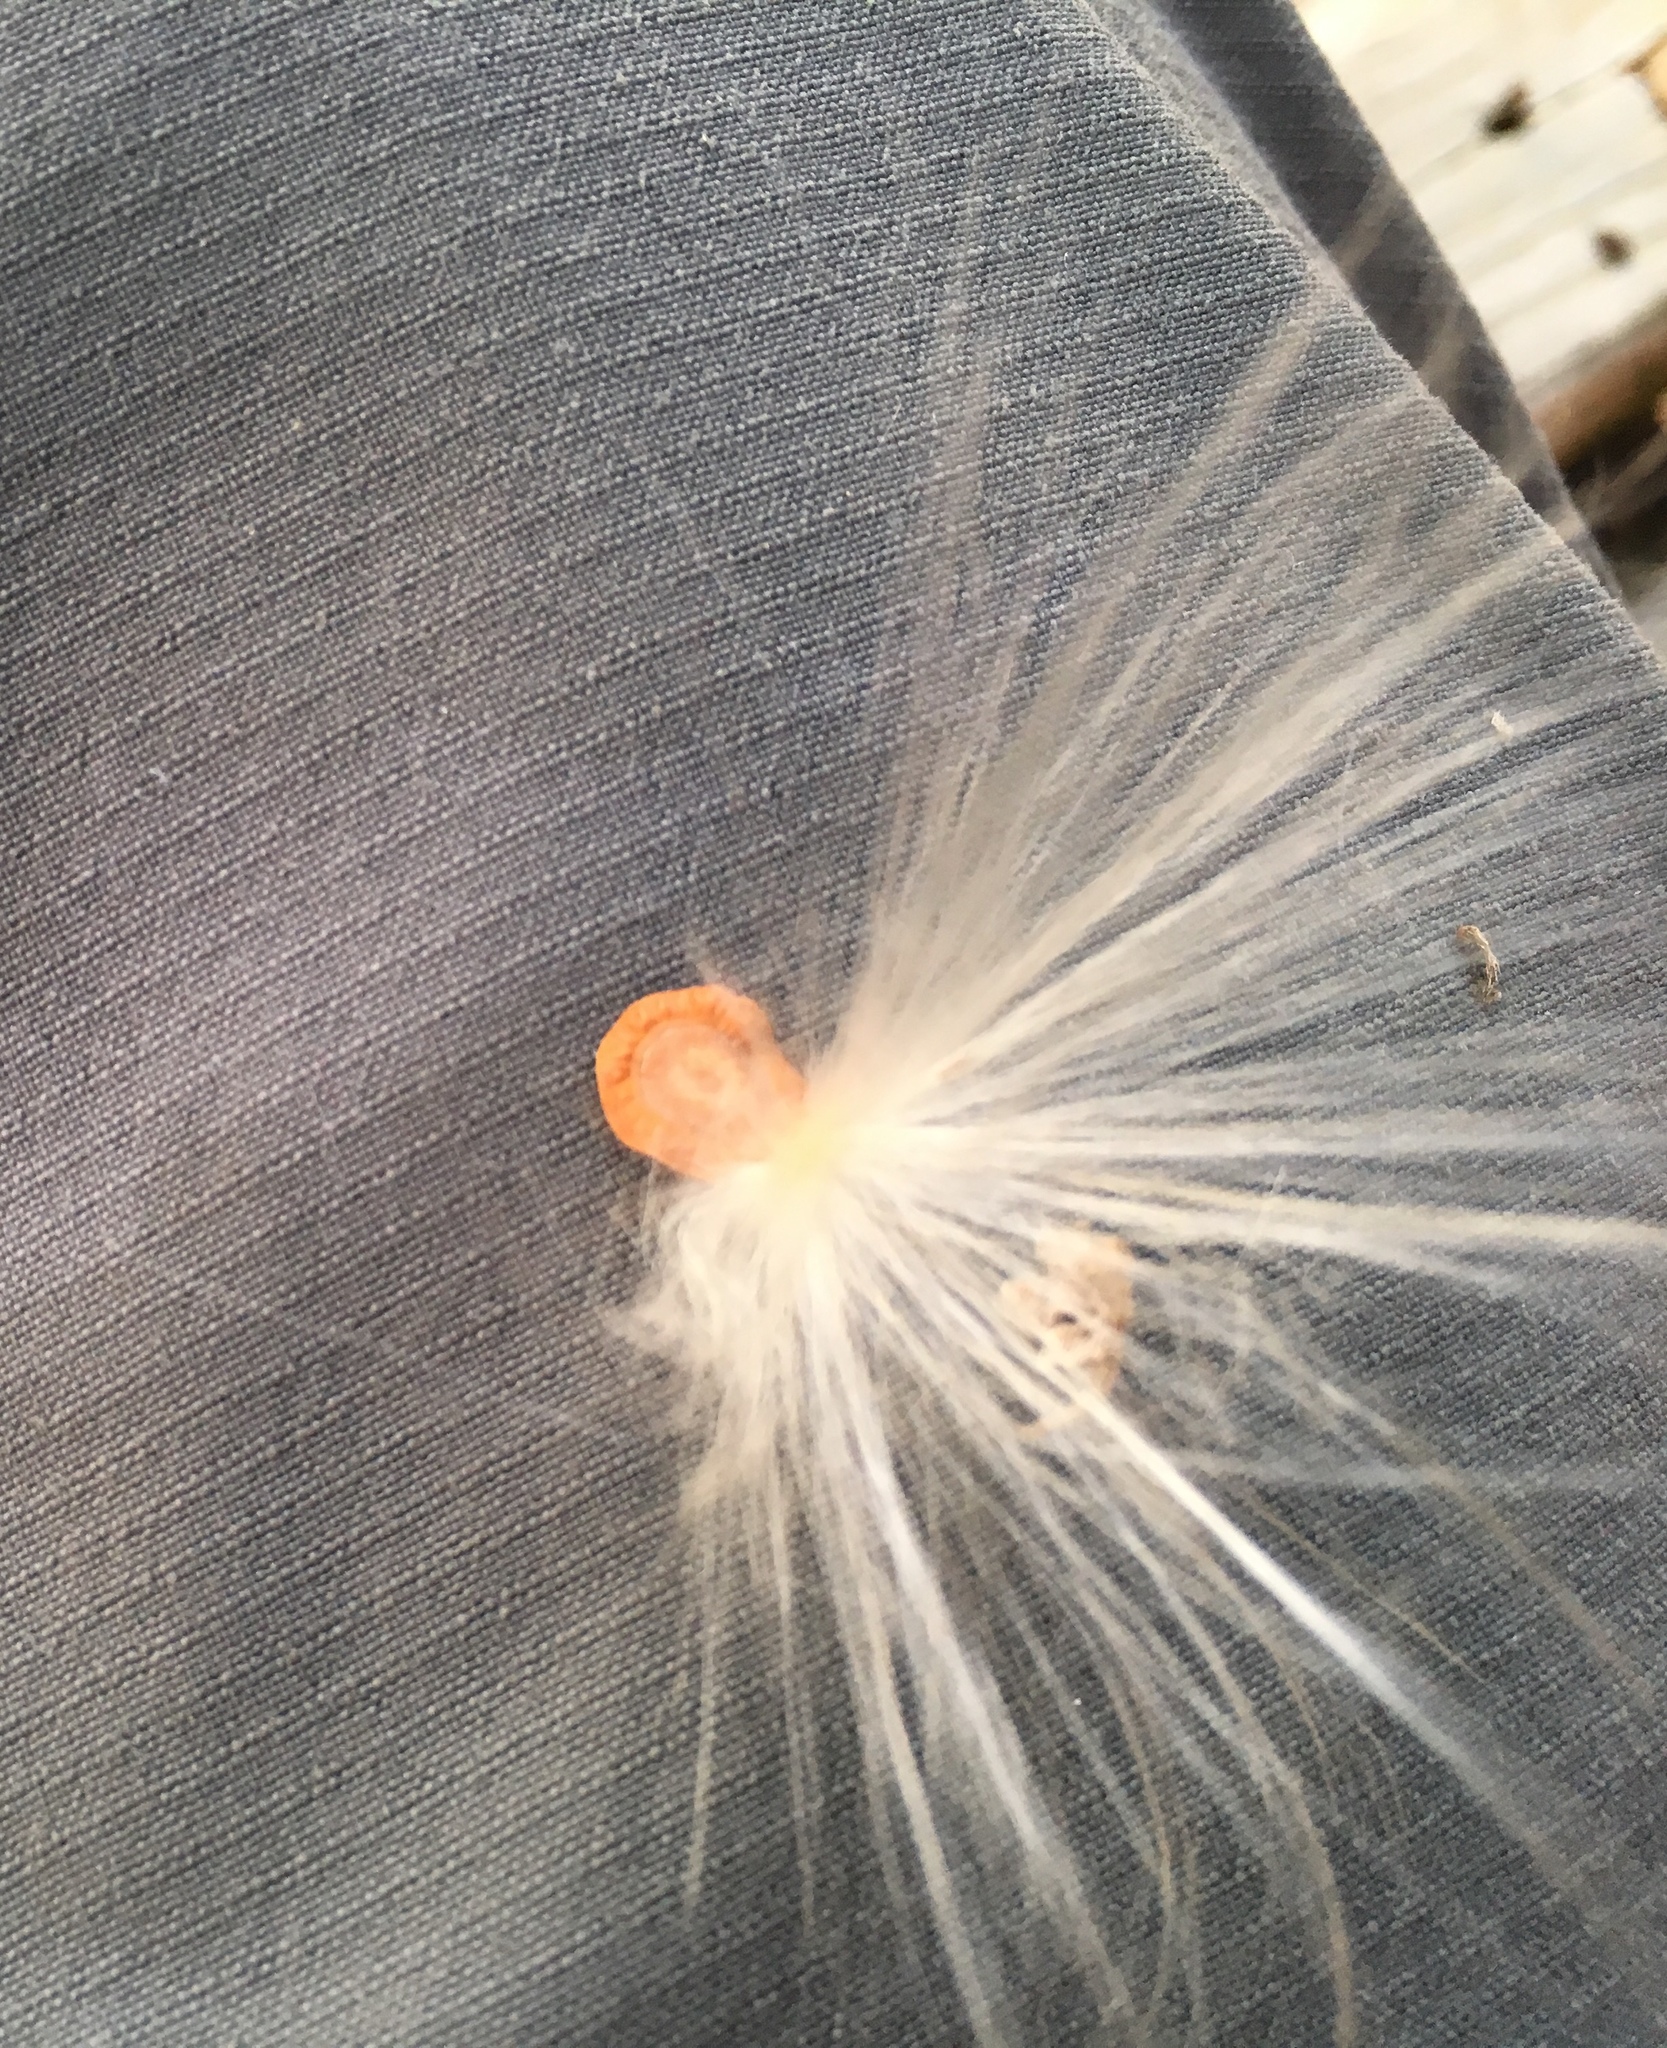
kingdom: Plantae
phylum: Tracheophyta
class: Magnoliopsida
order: Gentianales
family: Apocynaceae
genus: Asclepias
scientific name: Asclepias oenotheroides
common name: Zizotes milkweed
